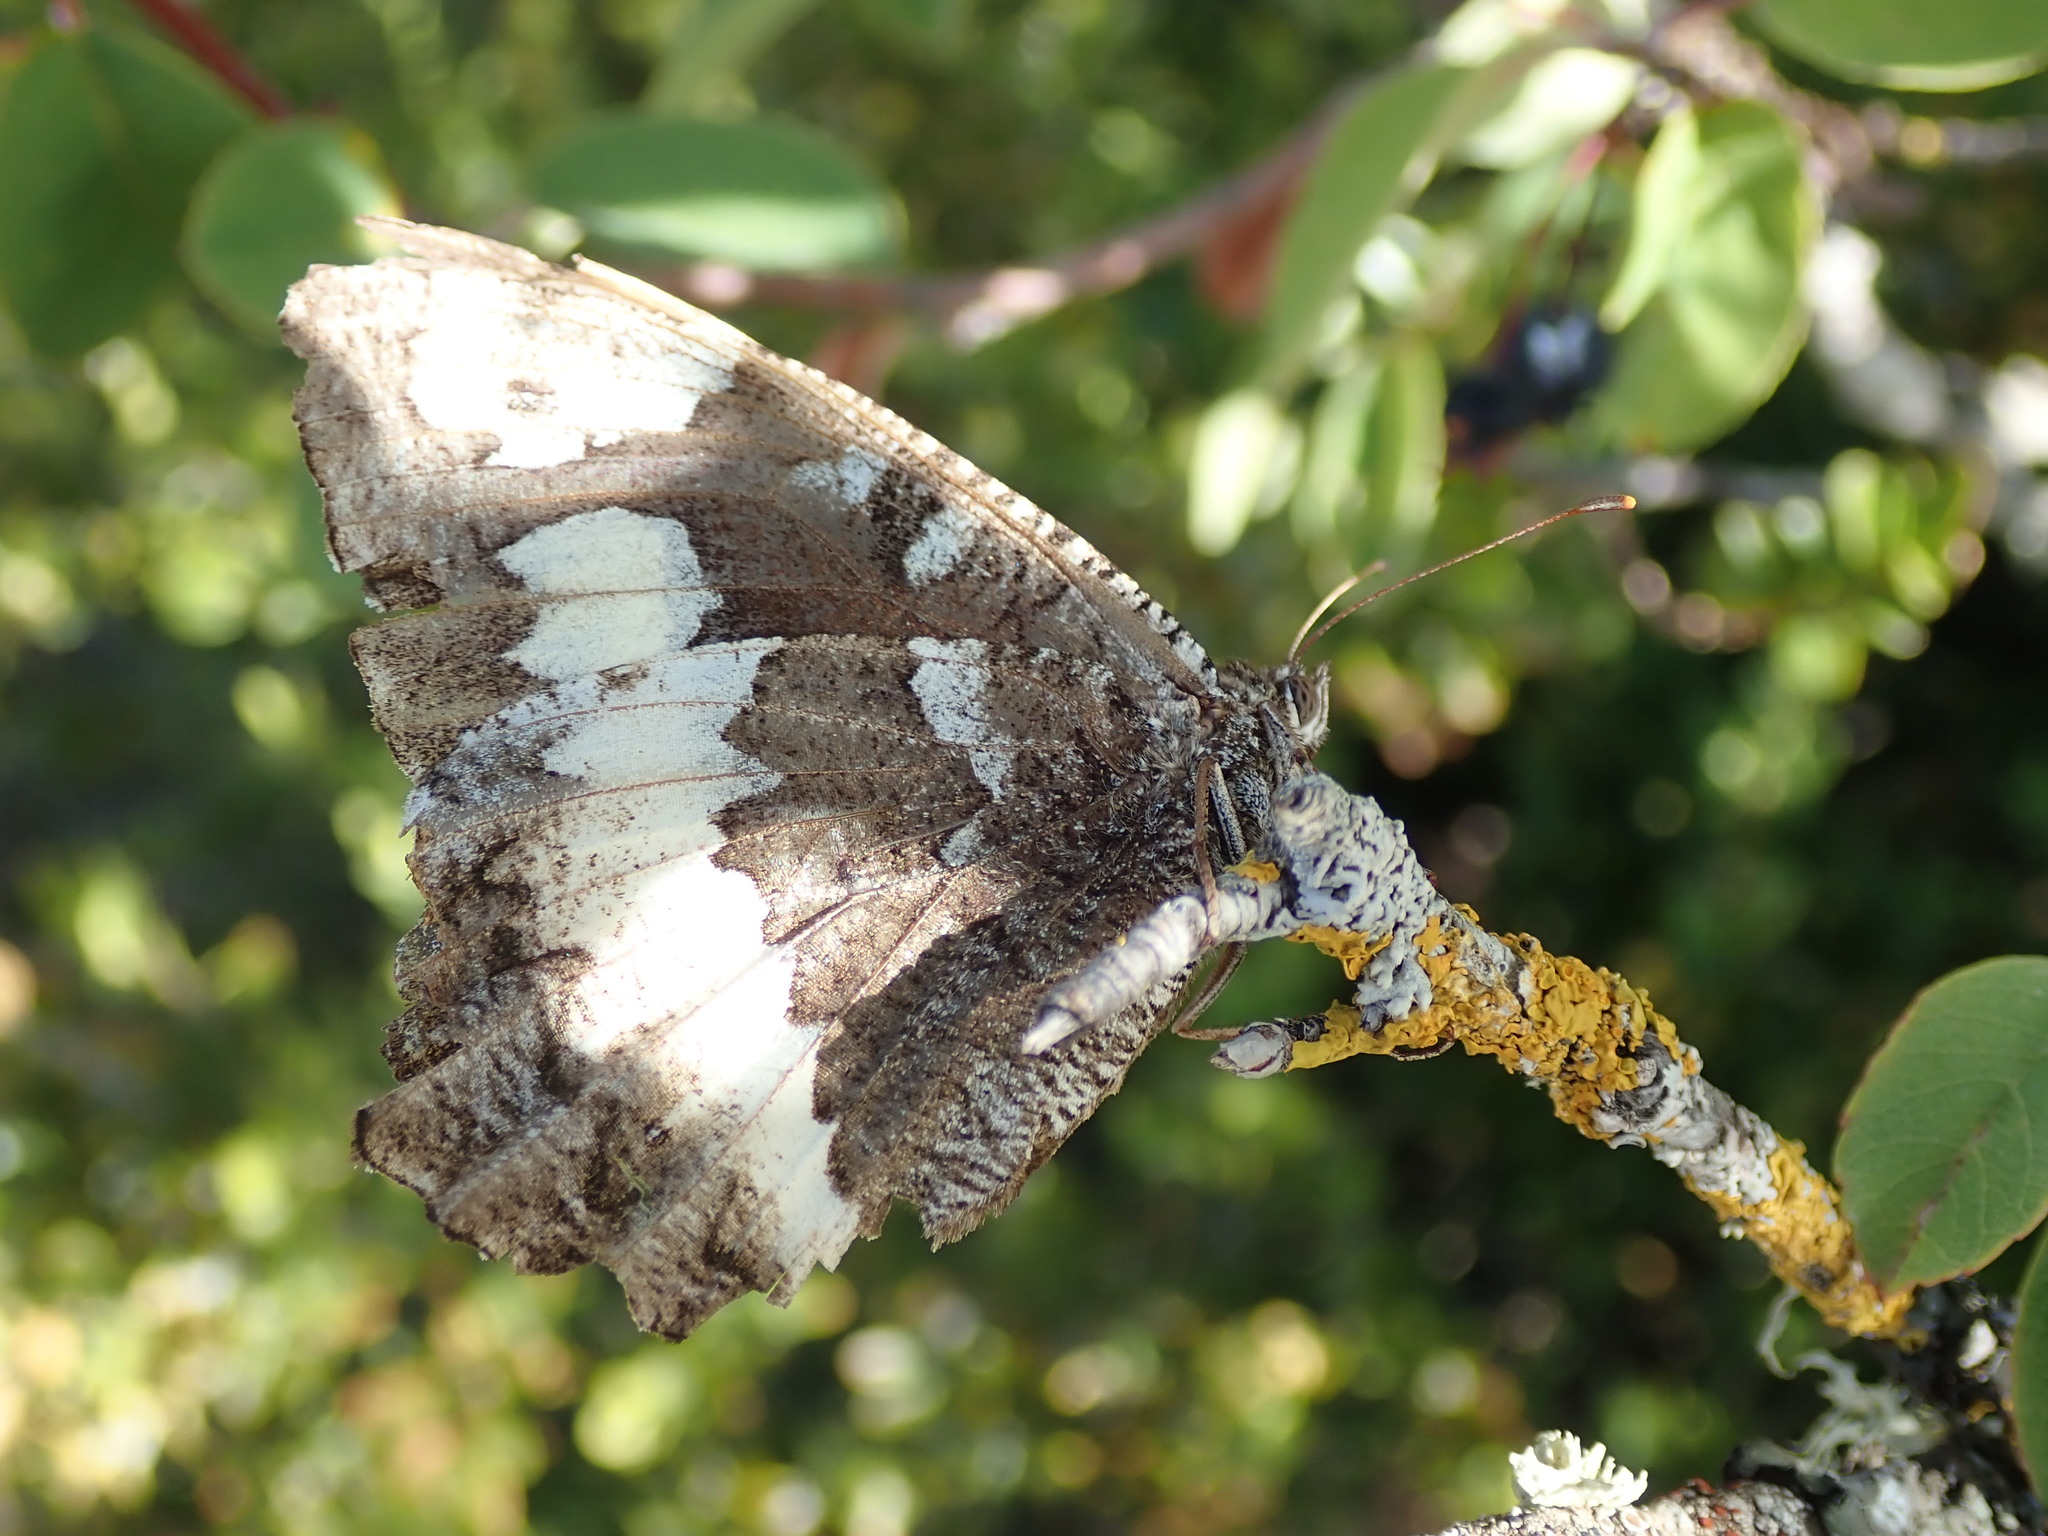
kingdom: Animalia
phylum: Arthropoda
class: Insecta
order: Lepidoptera
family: Lycaenidae
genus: Loweia
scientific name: Loweia tityrus
